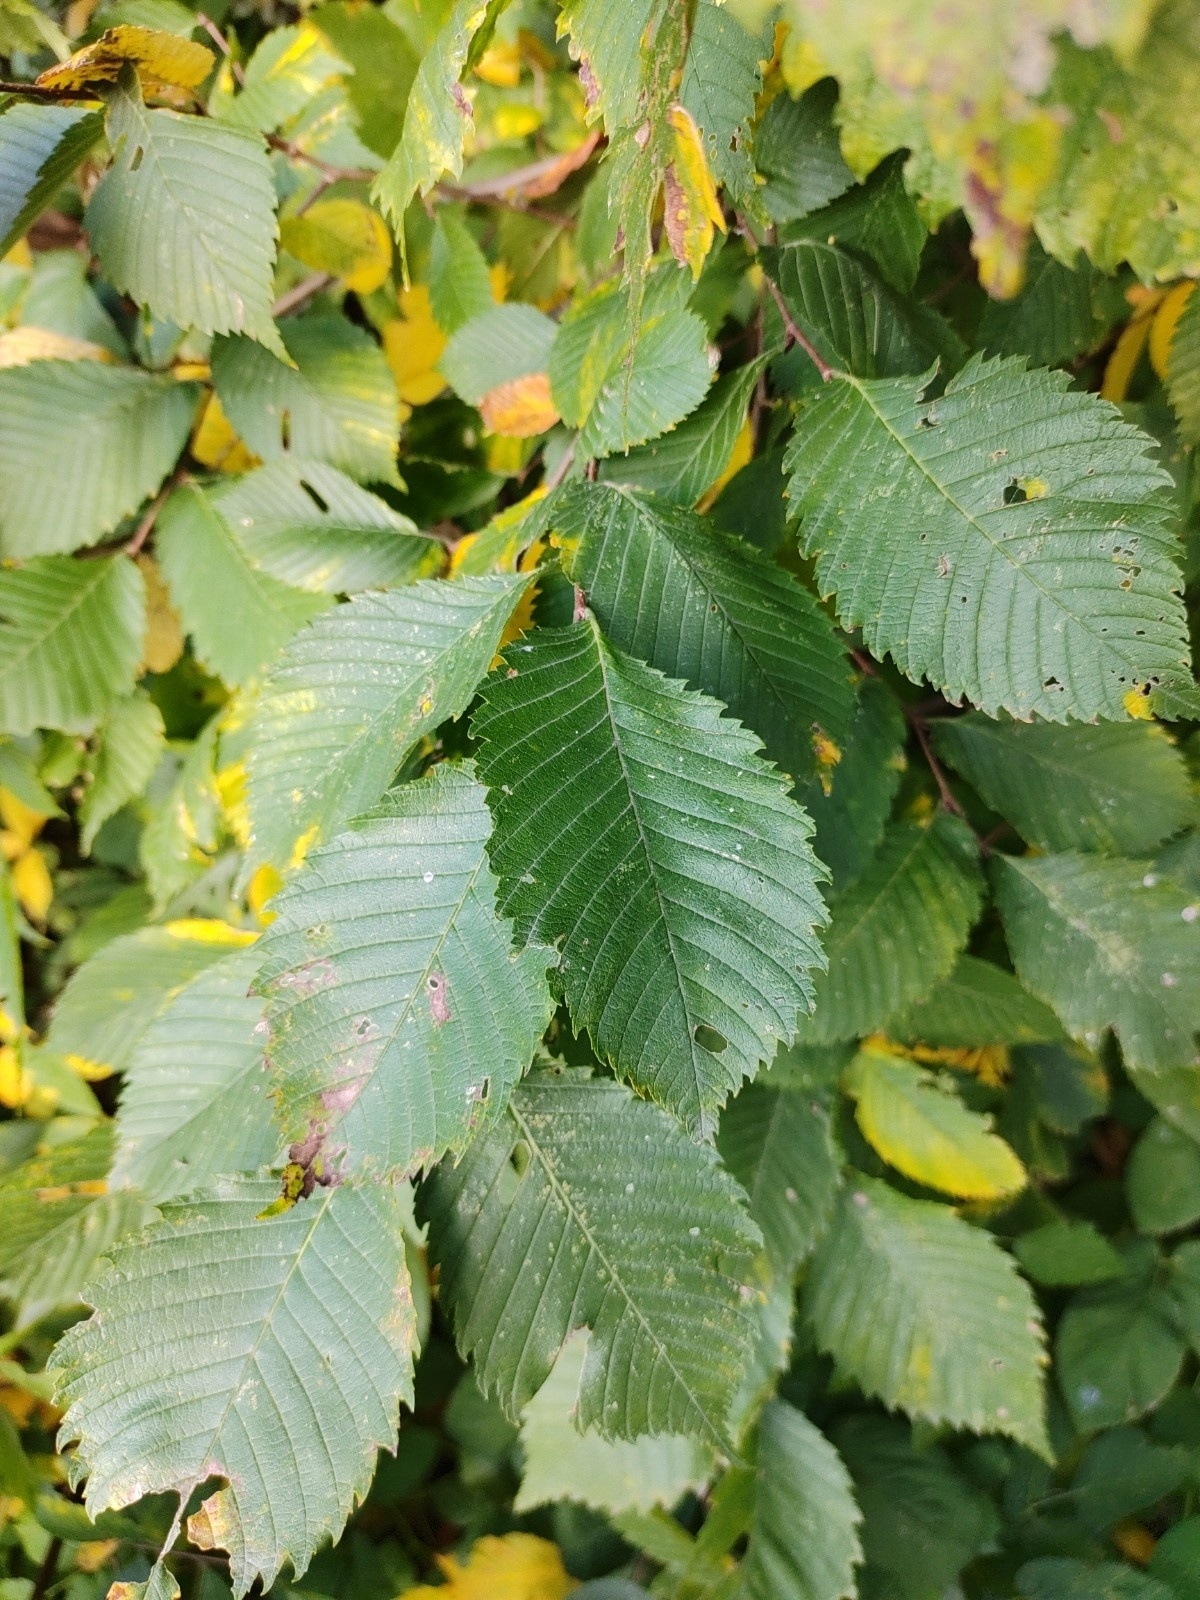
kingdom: Plantae
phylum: Tracheophyta
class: Magnoliopsida
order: Rosales
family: Ulmaceae
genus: Ulmus
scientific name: Ulmus laevis
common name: European white-elm
